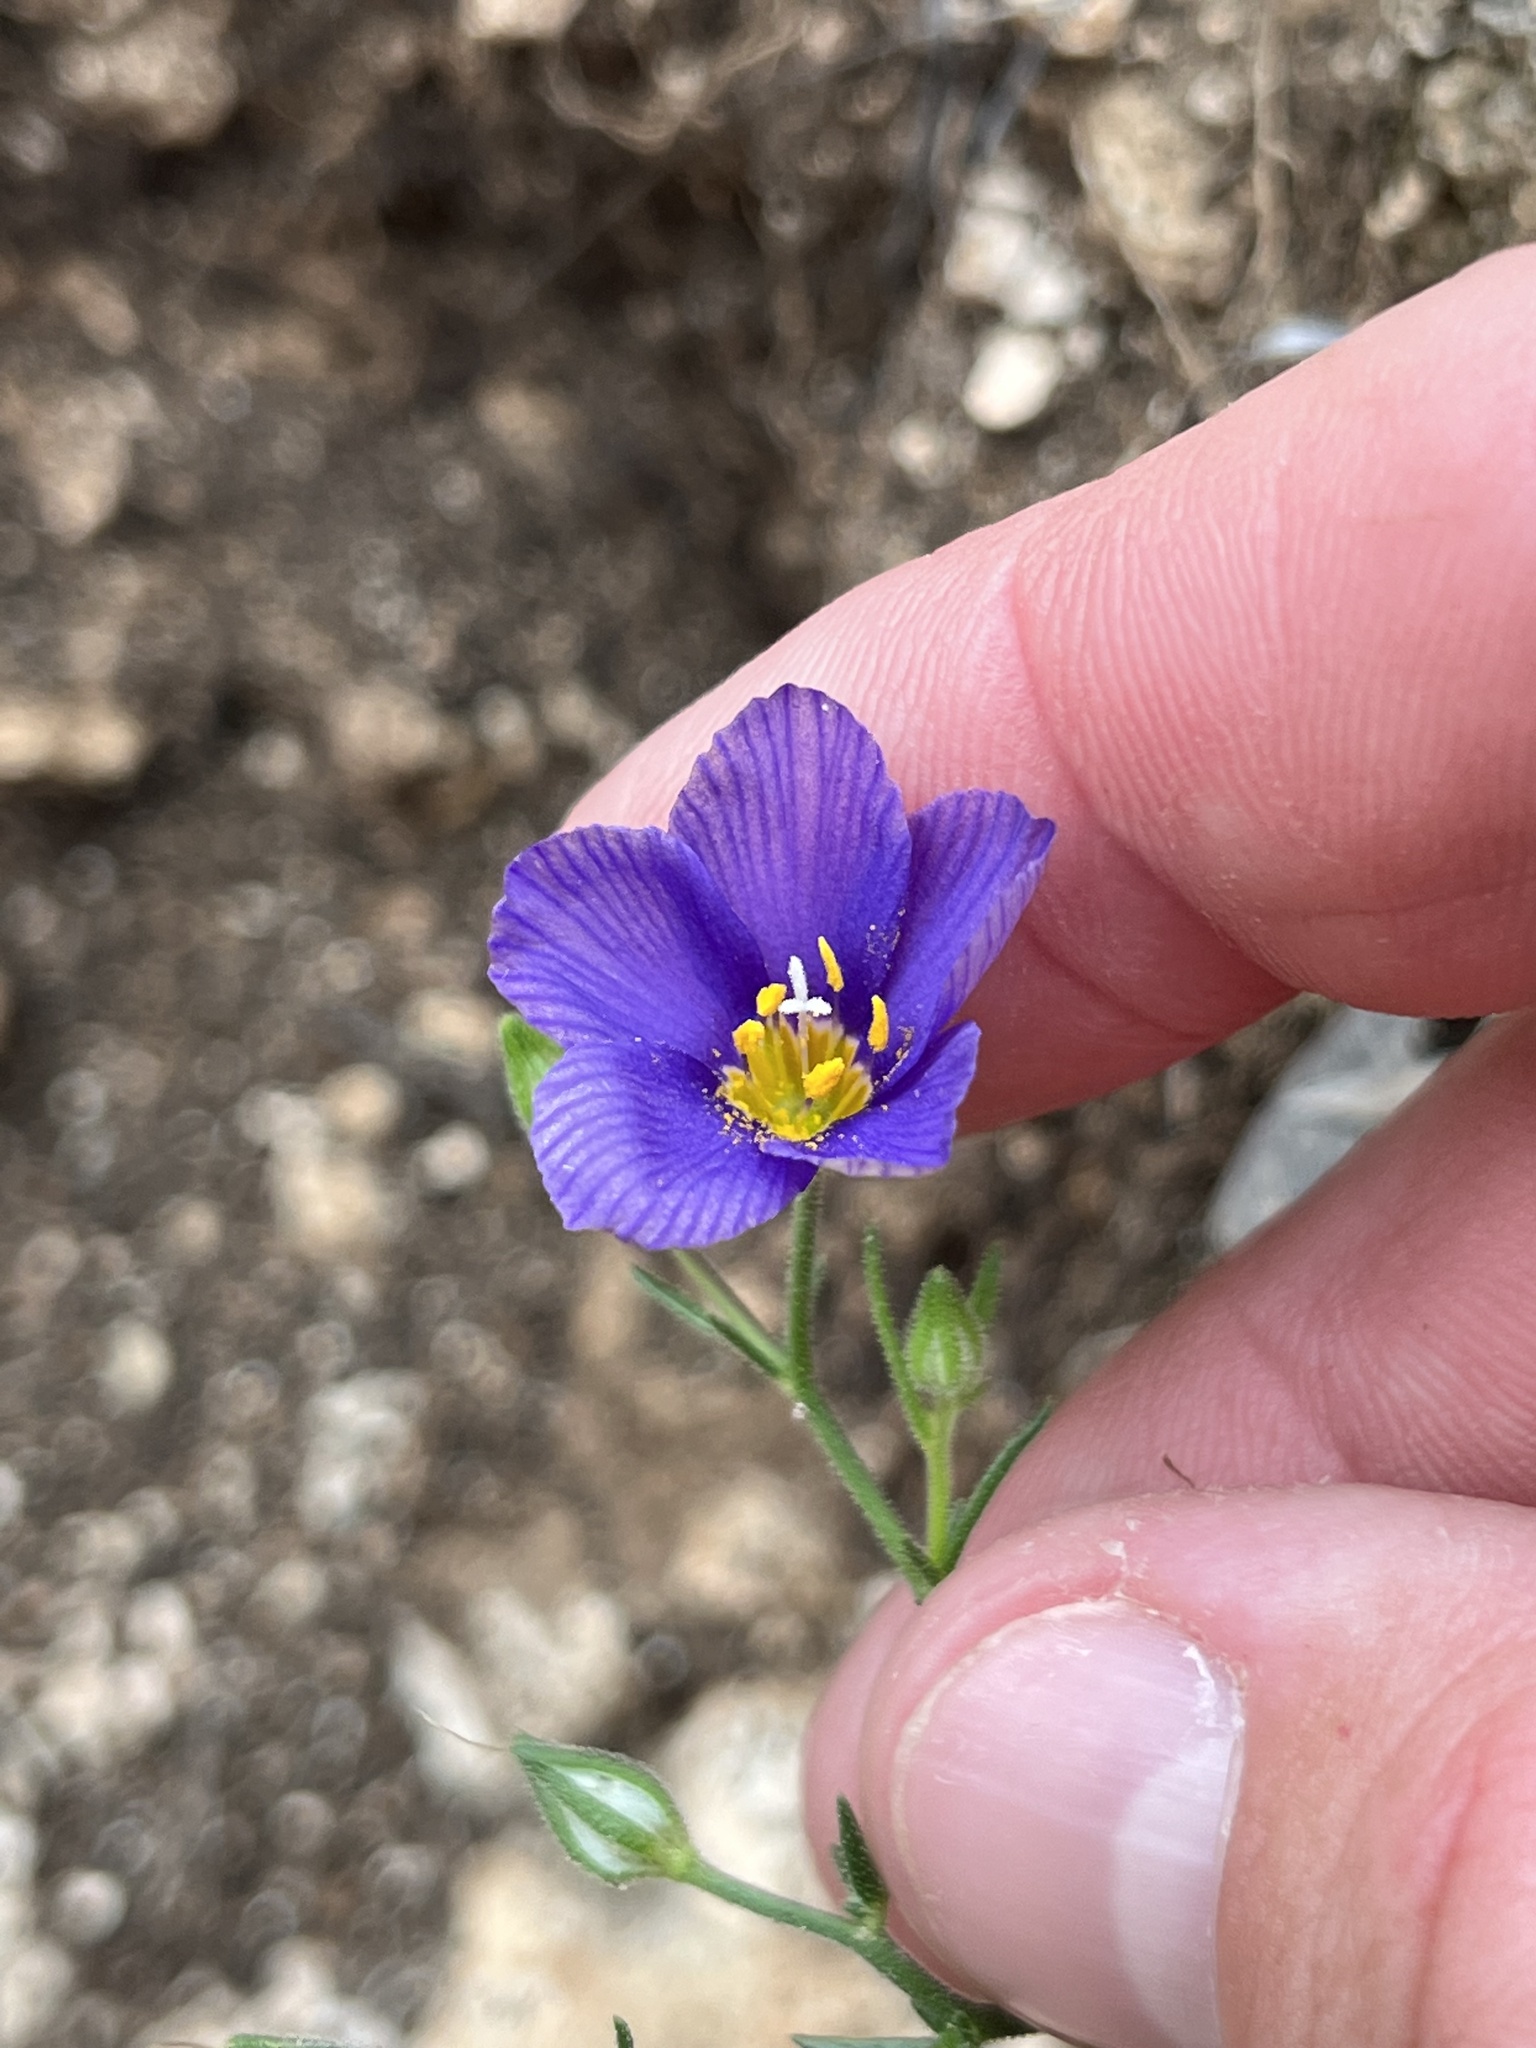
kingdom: Plantae
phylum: Tracheophyta
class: Magnoliopsida
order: Ericales
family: Polemoniaceae
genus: Giliastrum
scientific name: Giliastrum rigidulum
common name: Bluebowls
